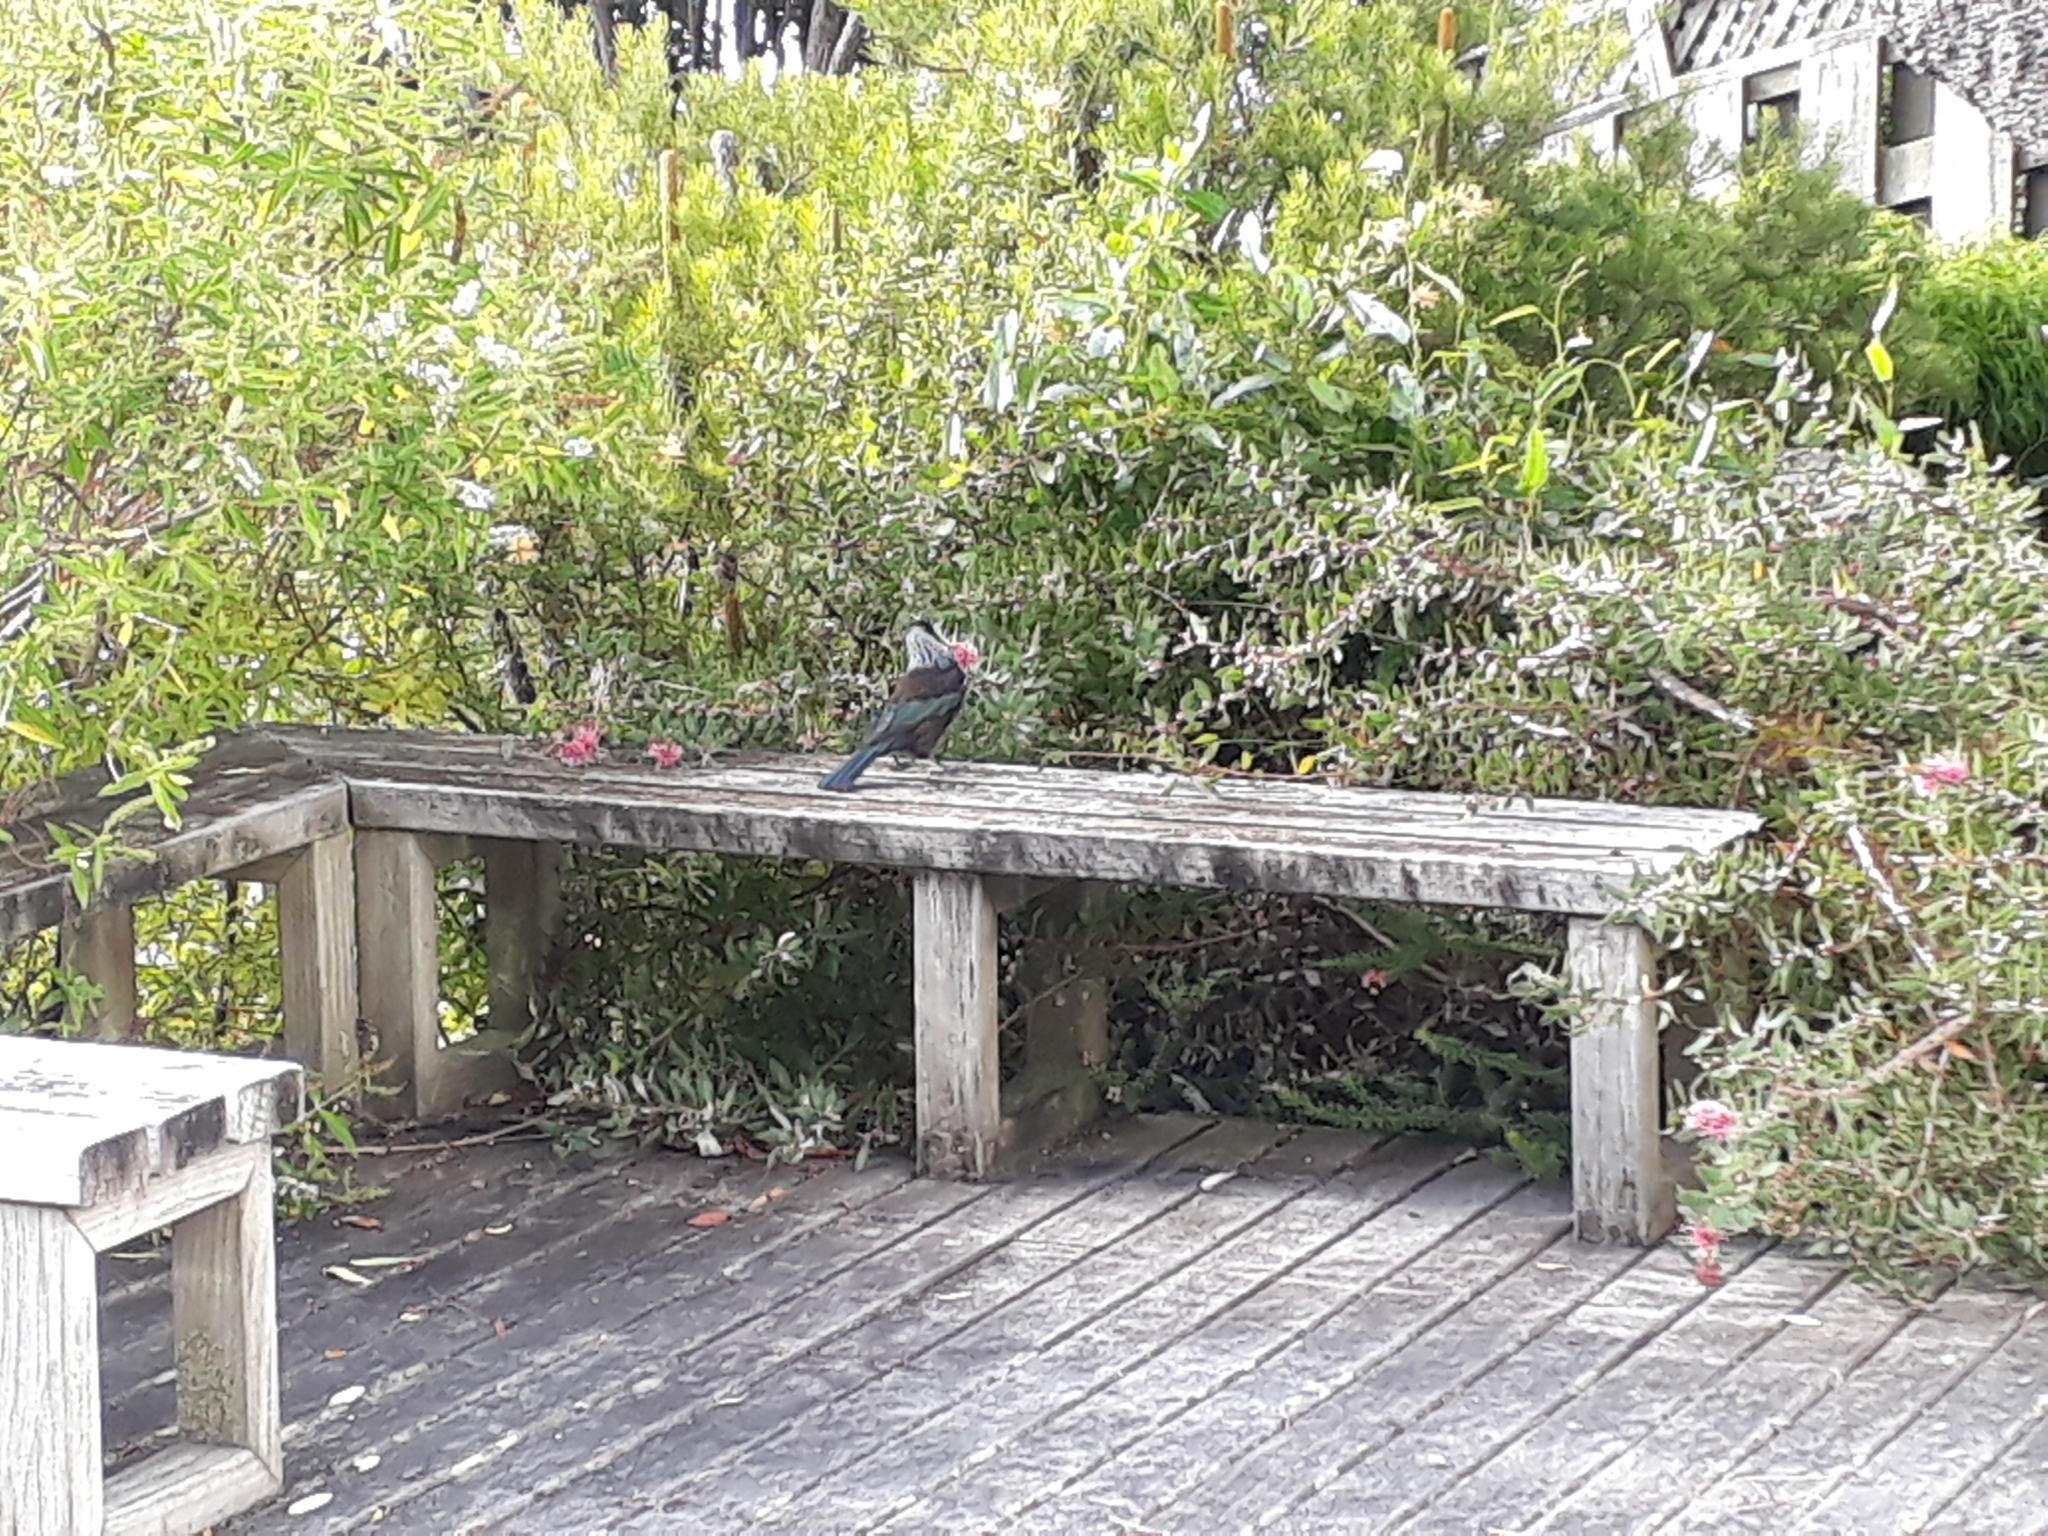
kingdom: Animalia
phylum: Chordata
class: Aves
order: Passeriformes
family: Meliphagidae
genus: Prosthemadera
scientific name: Prosthemadera novaeseelandiae
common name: Tui
